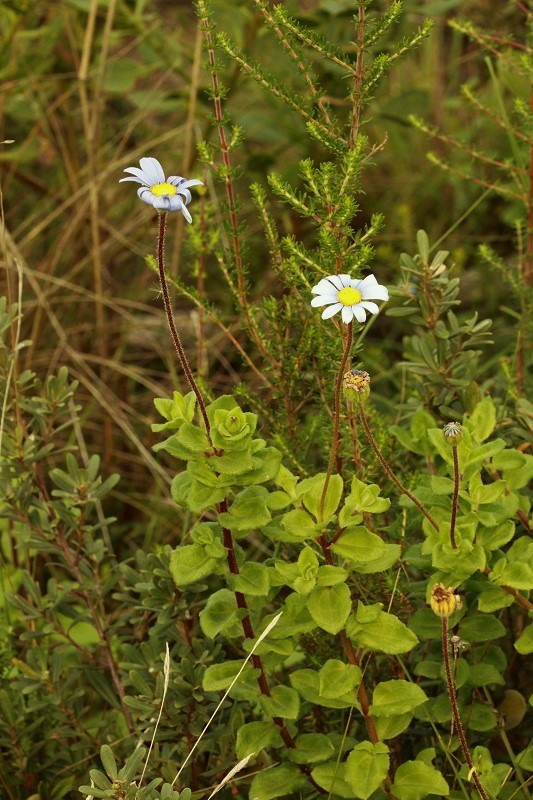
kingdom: Plantae
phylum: Tracheophyta
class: Magnoliopsida
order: Asterales
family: Asteraceae
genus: Felicia
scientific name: Felicia amelloides
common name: Blue marguerite
